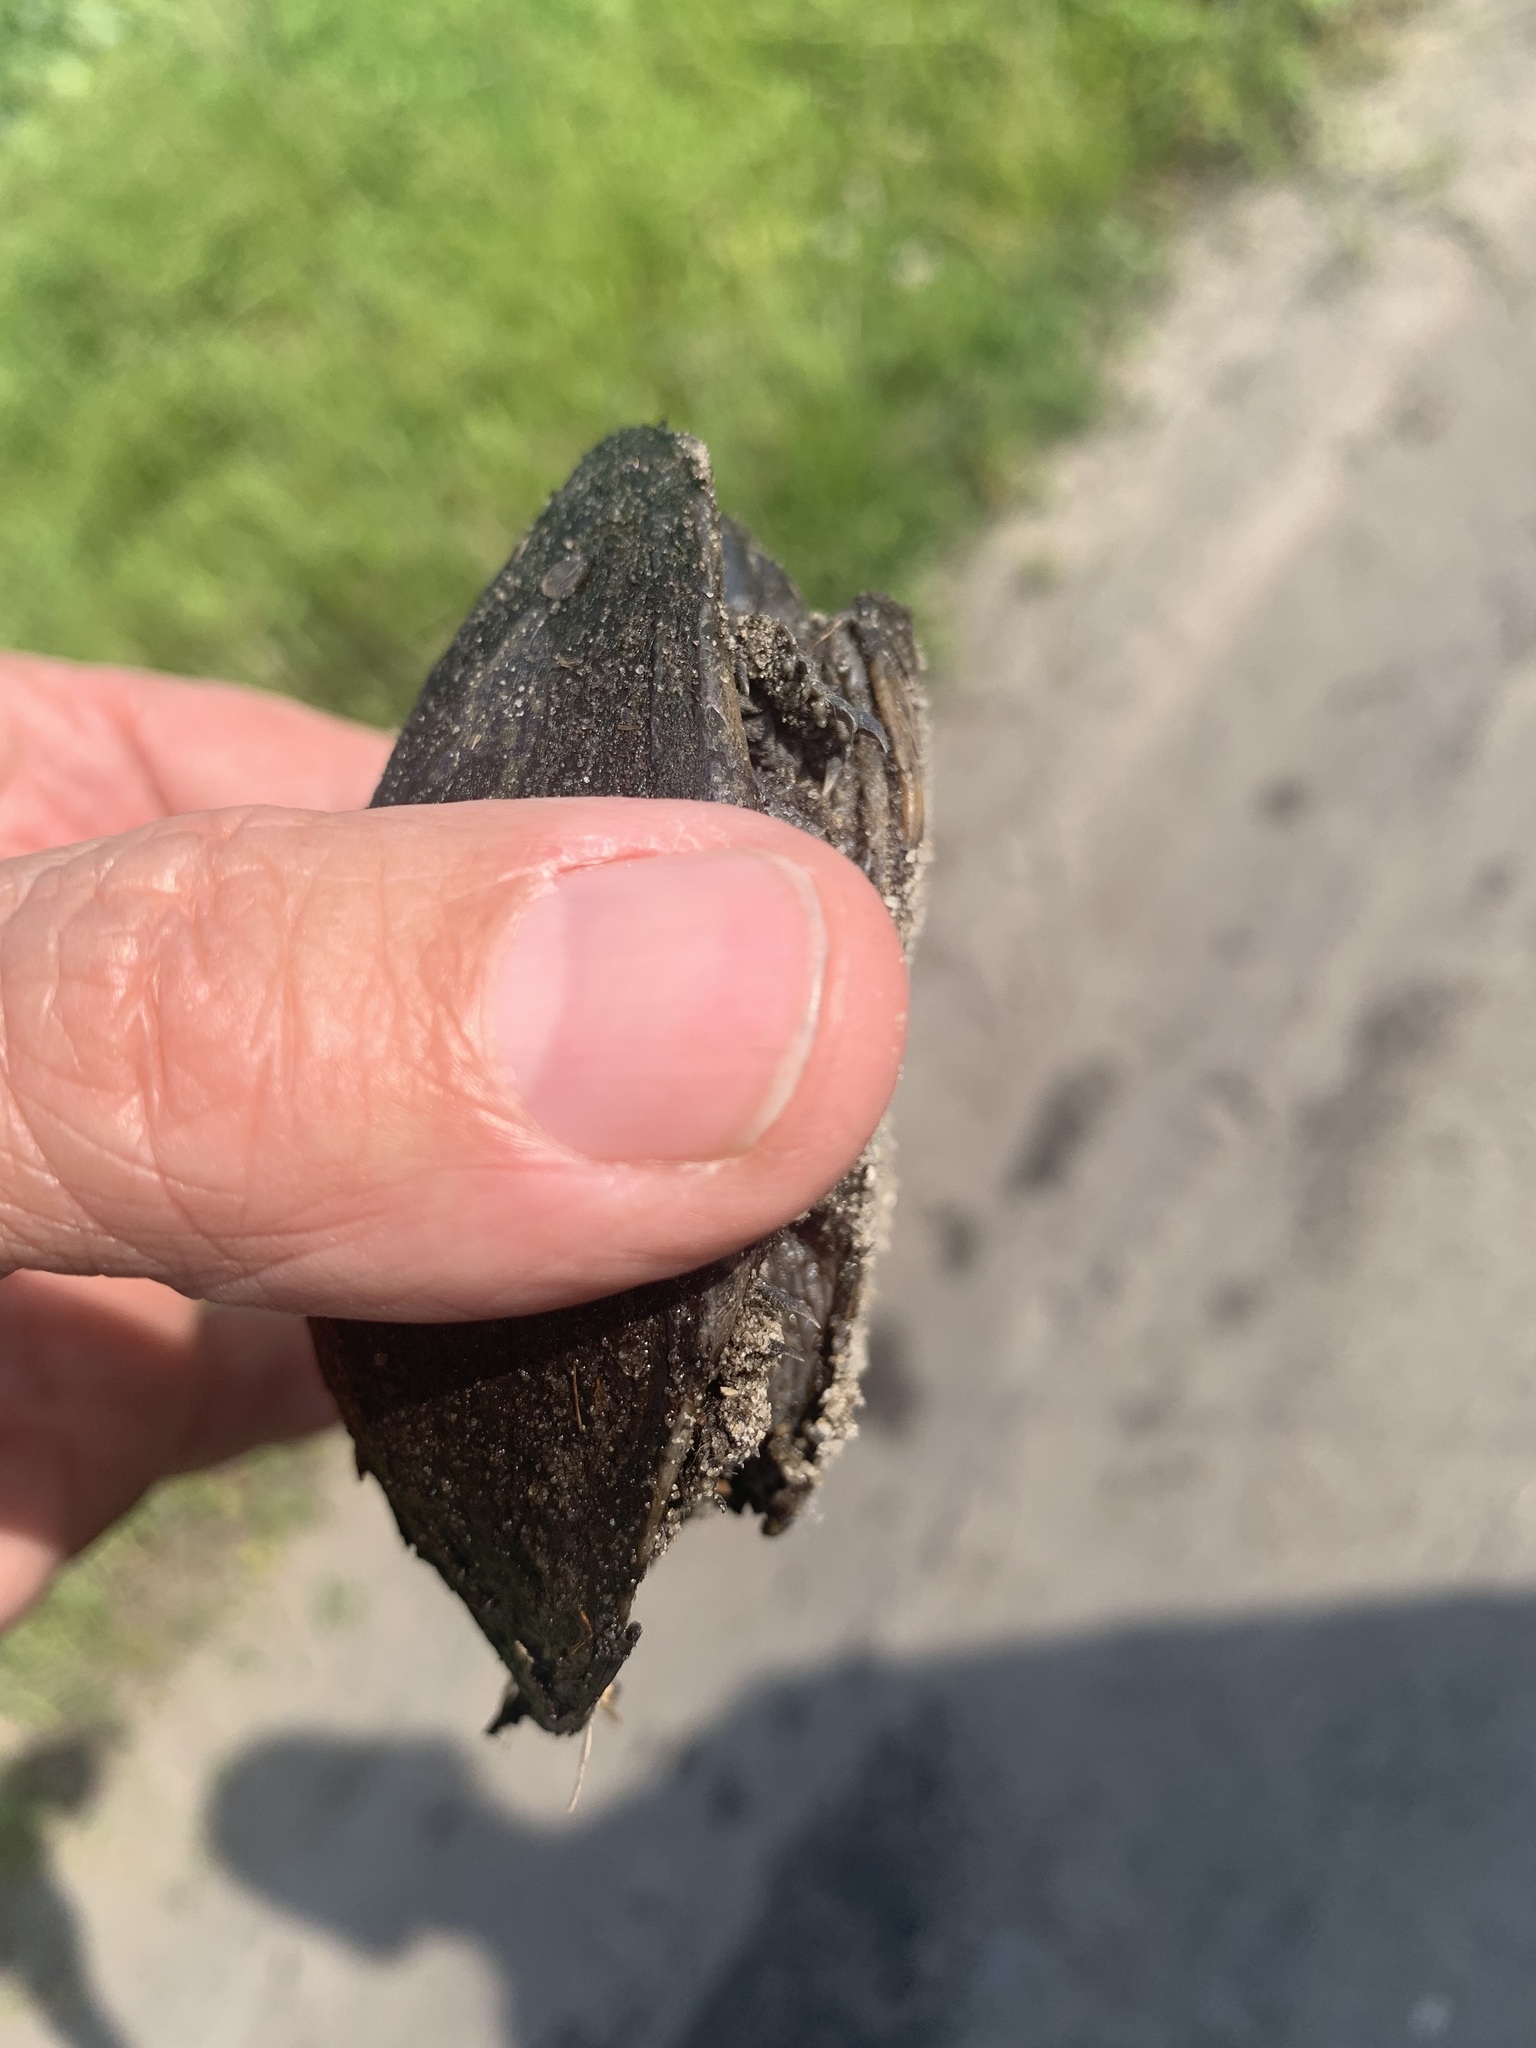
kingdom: Animalia
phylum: Chordata
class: Testudines
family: Kinosternidae
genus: Sternotherus
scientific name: Sternotherus odoratus
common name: Common musk turtle
